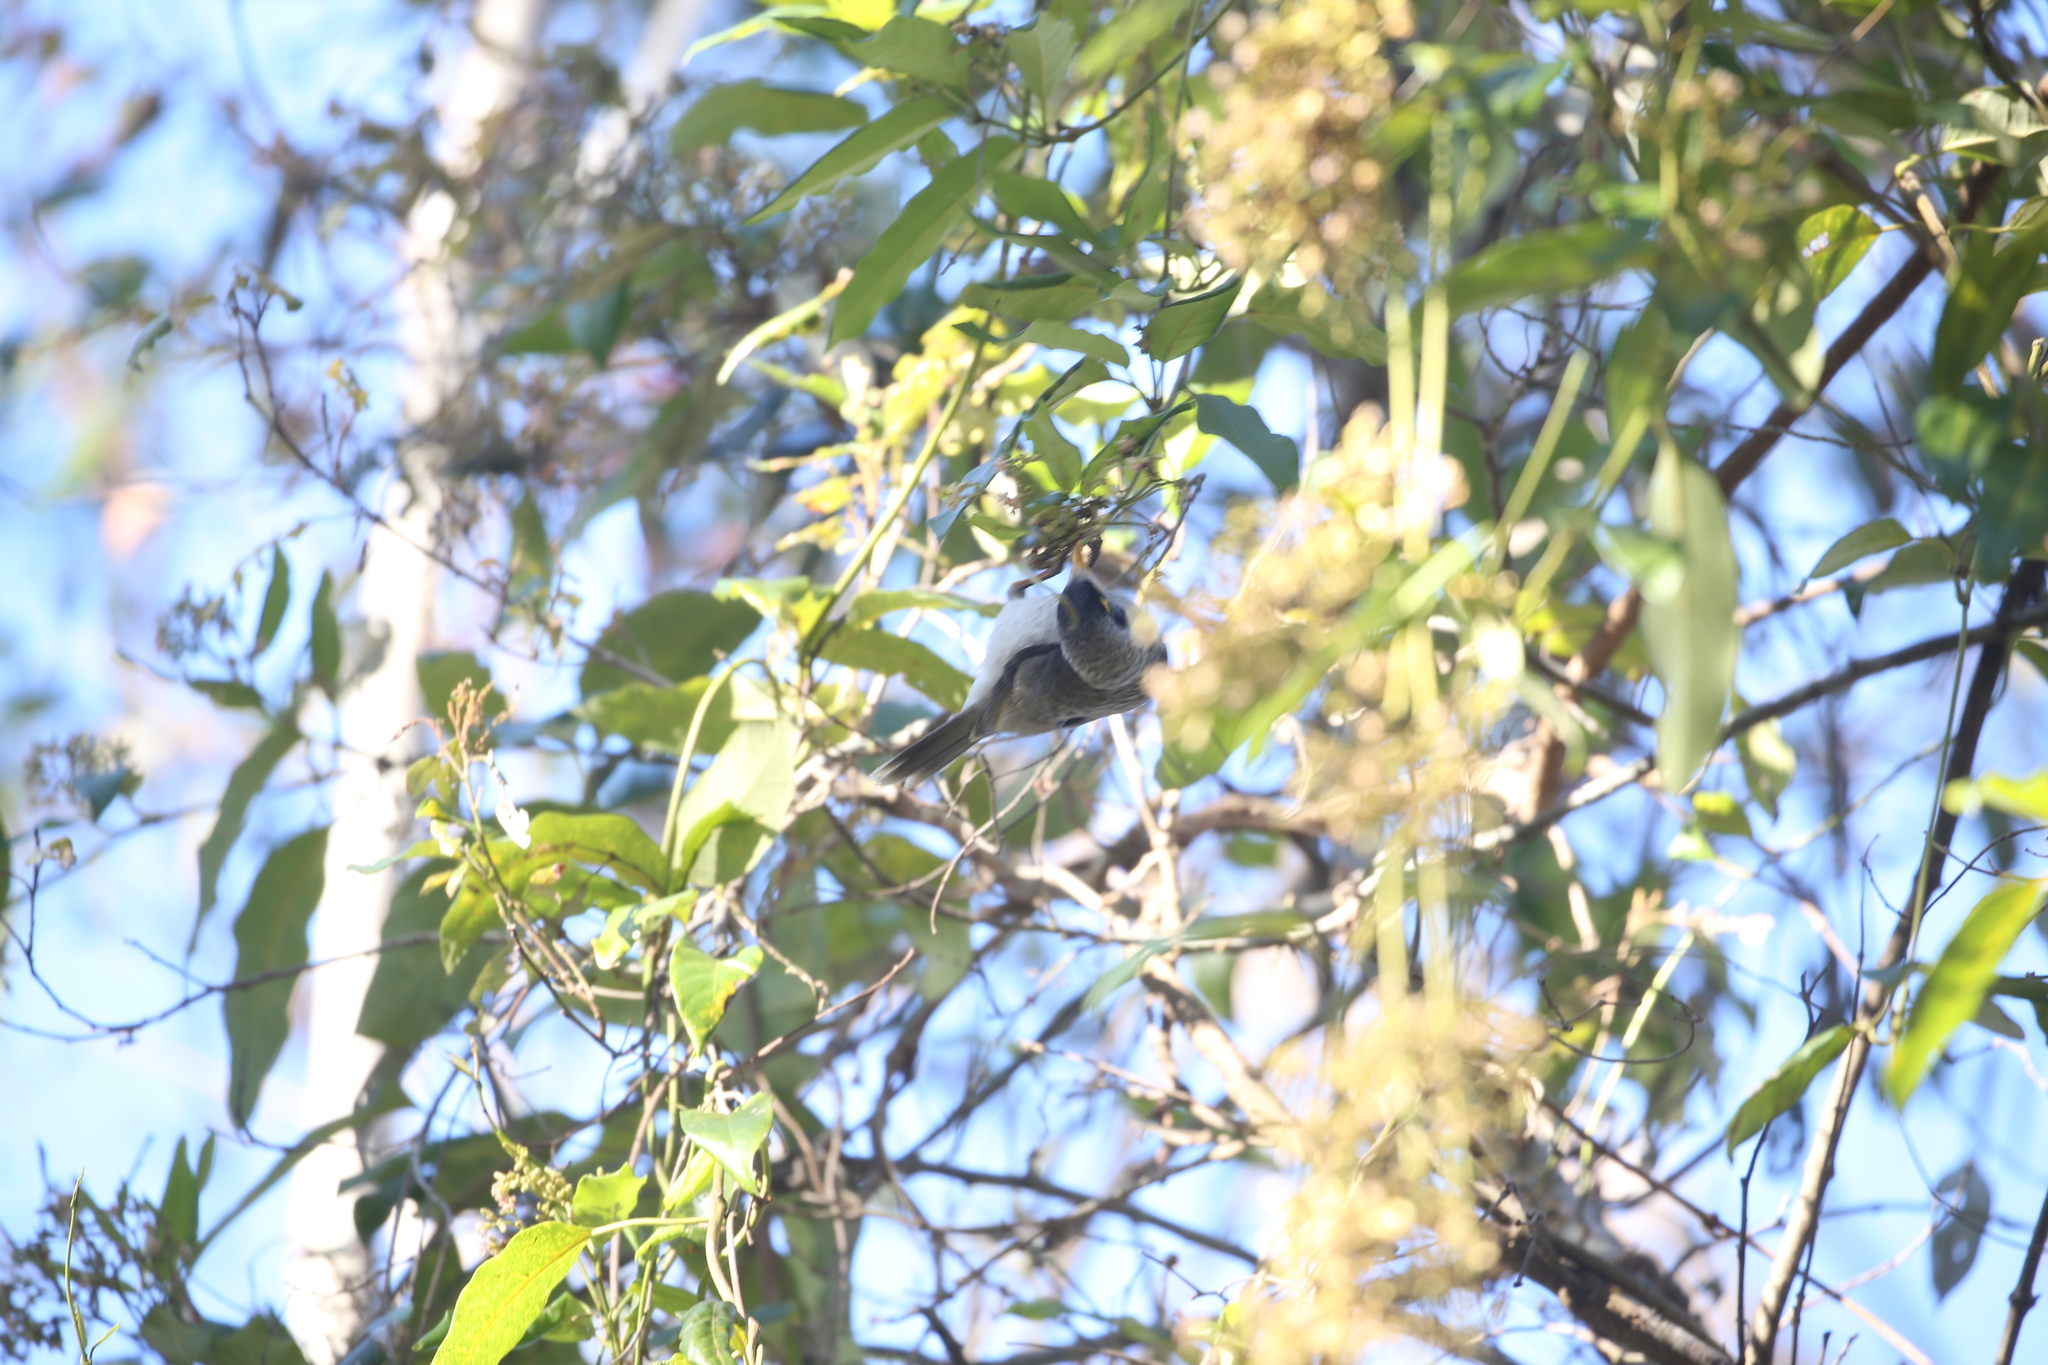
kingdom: Animalia
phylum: Chordata
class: Aves
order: Passeriformes
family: Meliphagidae
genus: Manorina
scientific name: Manorina melanocephala
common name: Noisy miner
